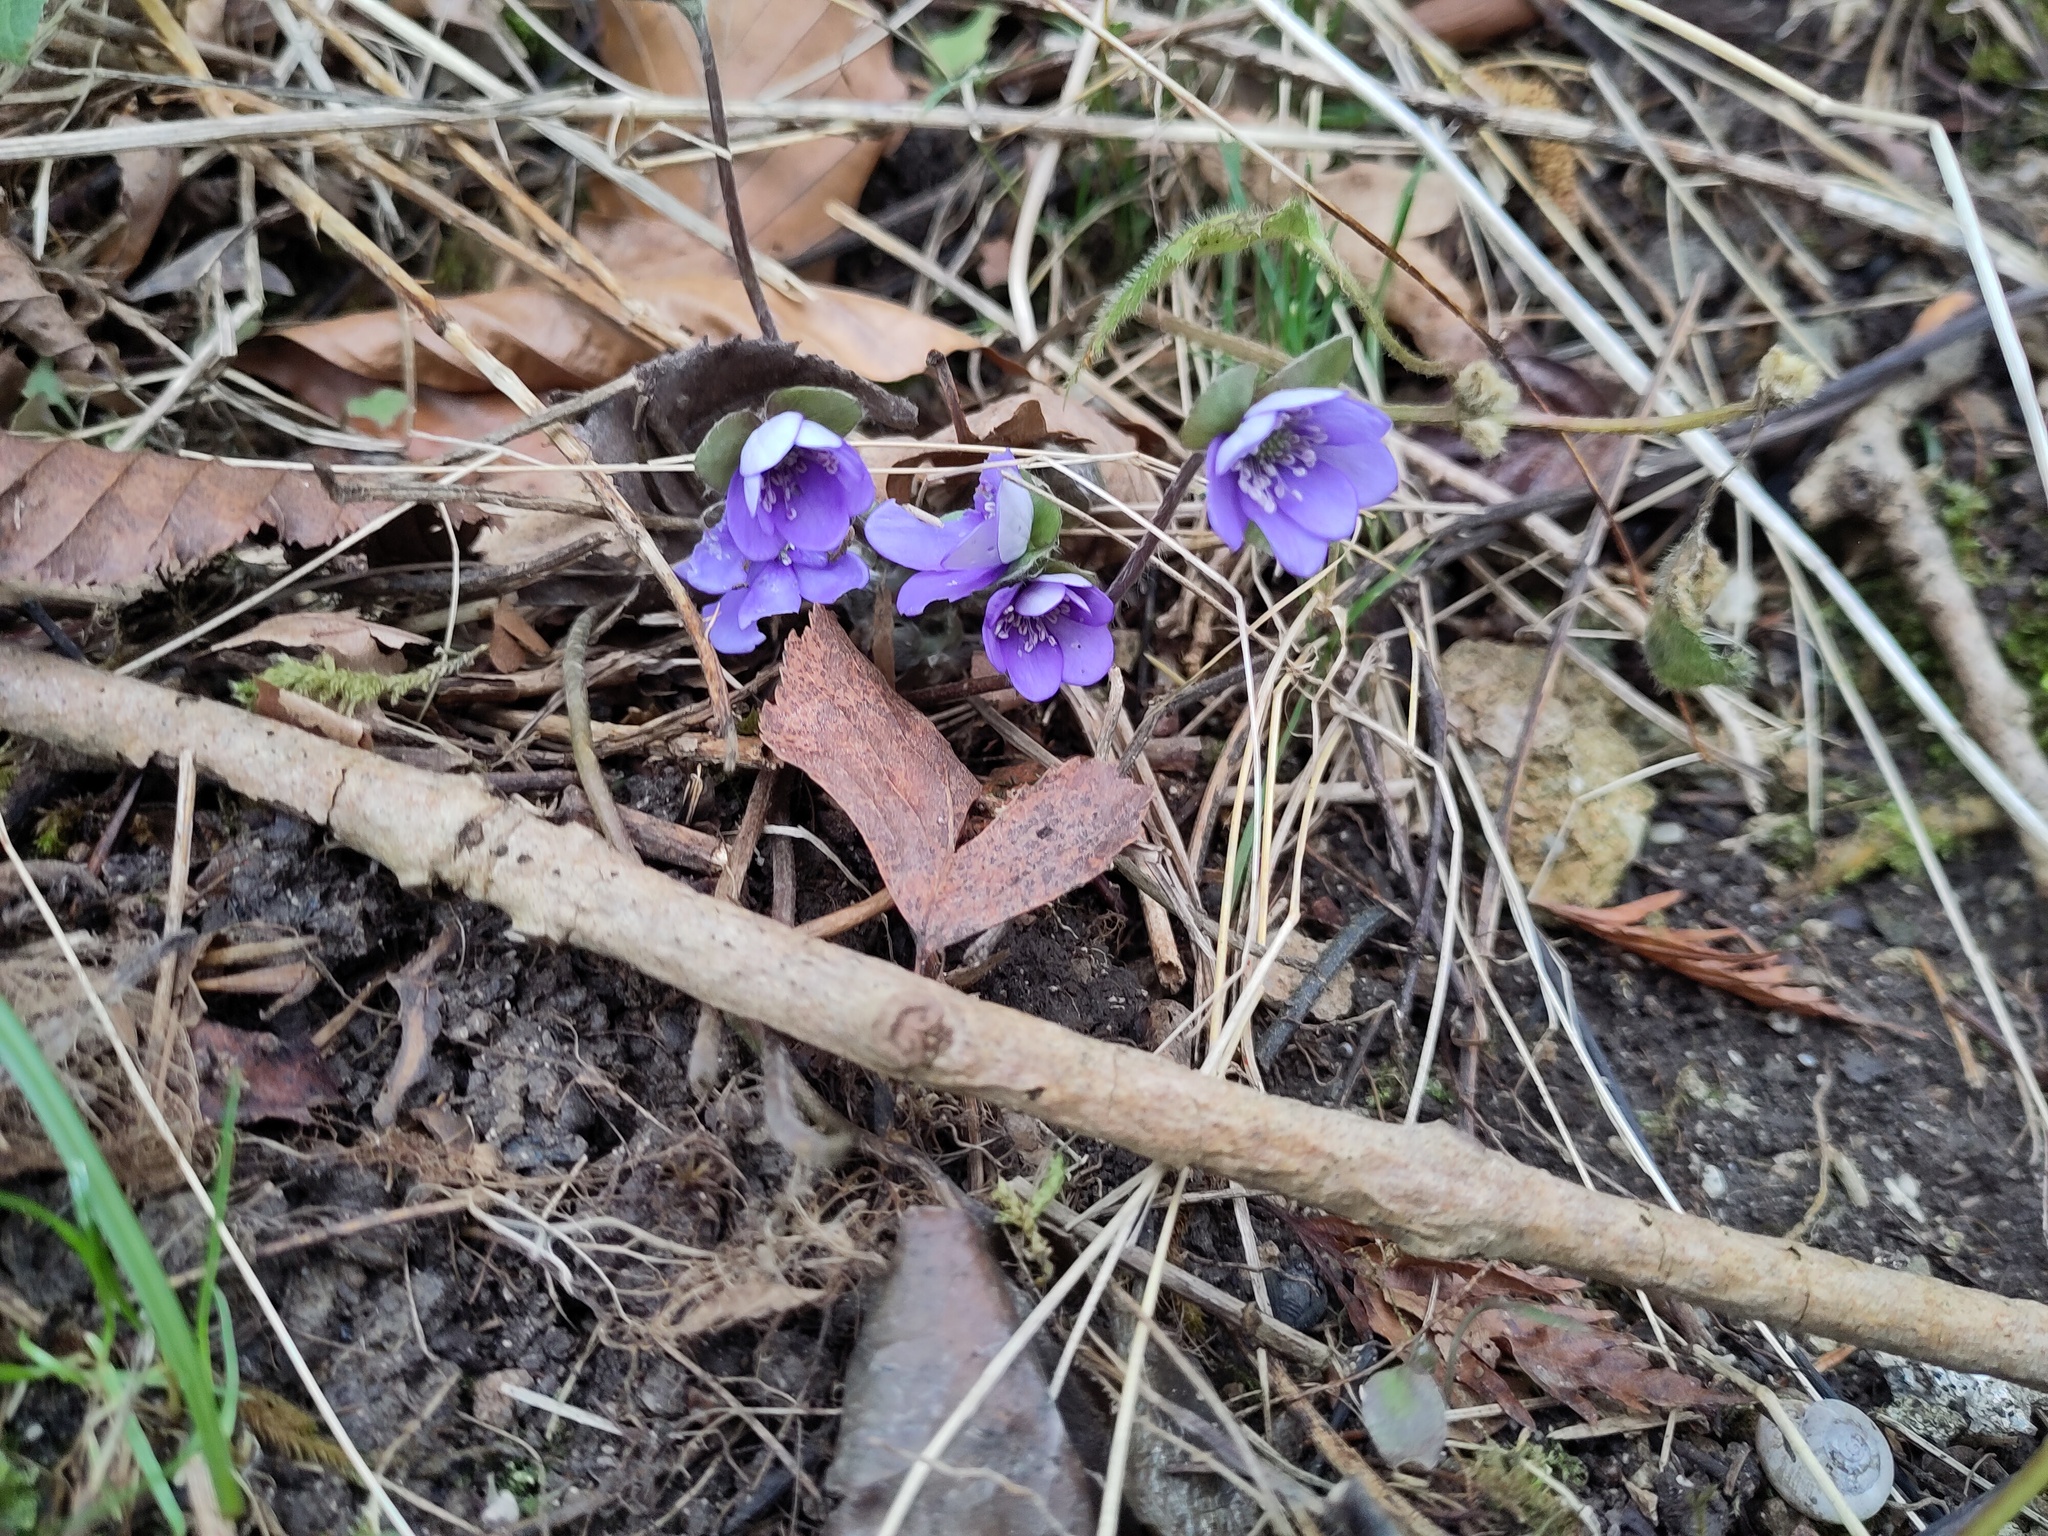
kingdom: Plantae
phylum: Tracheophyta
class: Magnoliopsida
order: Ranunculales
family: Ranunculaceae
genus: Hepatica
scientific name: Hepatica nobilis
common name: Liverleaf
